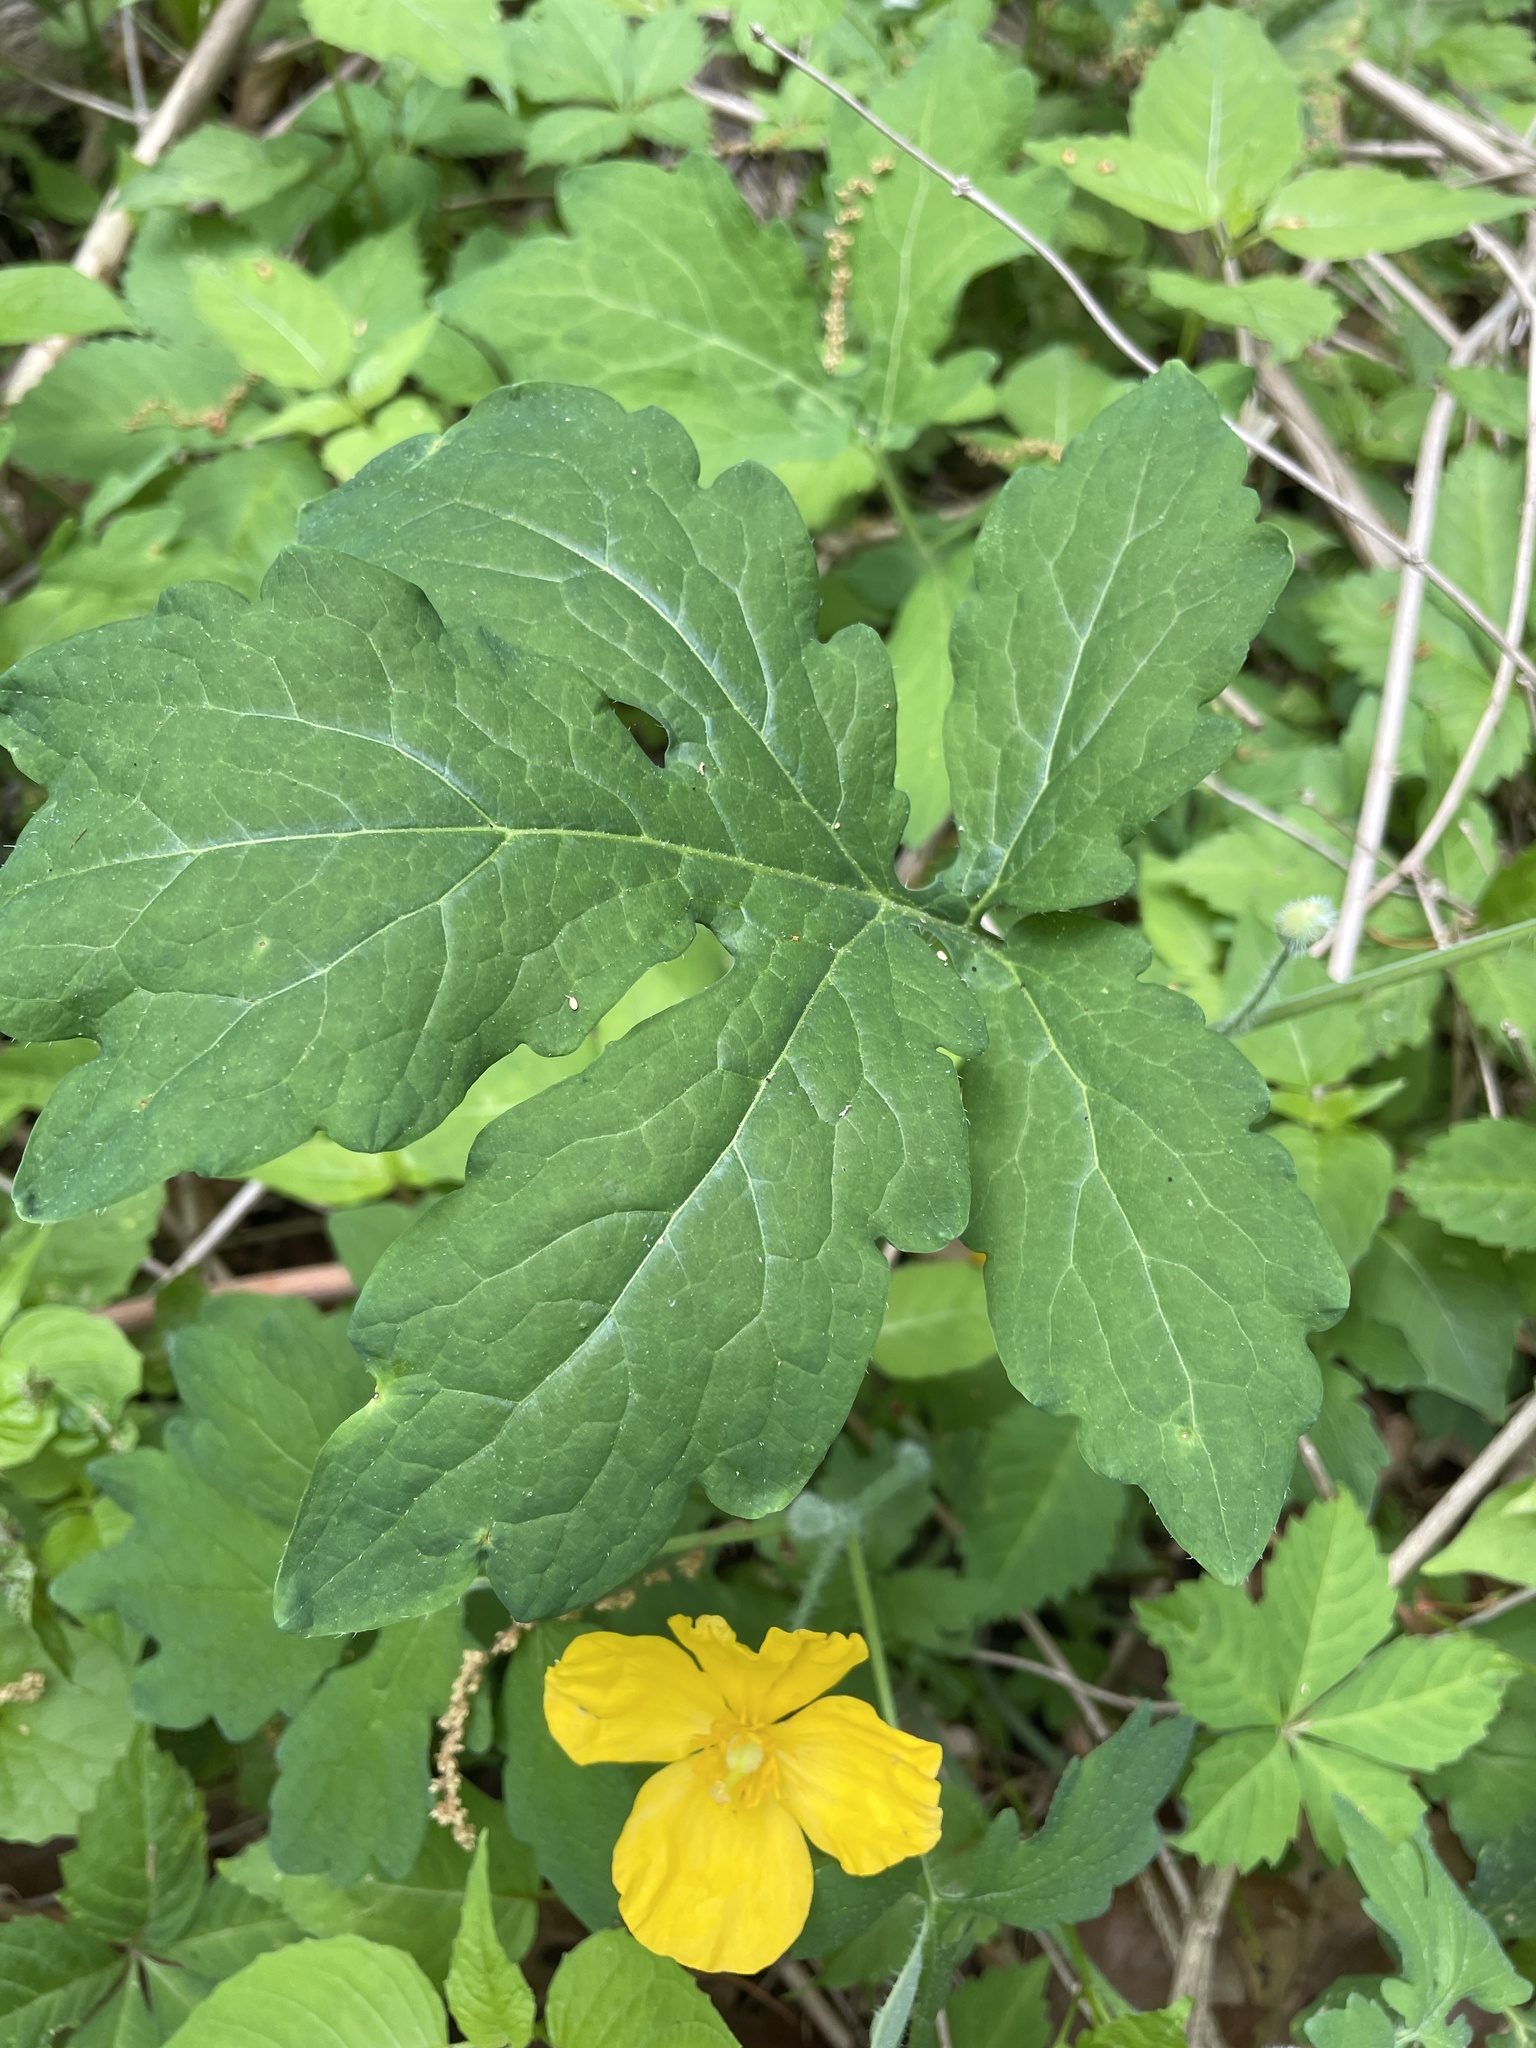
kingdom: Plantae
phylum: Tracheophyta
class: Magnoliopsida
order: Ranunculales
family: Papaveraceae
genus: Stylophorum
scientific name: Stylophorum diphyllum
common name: Celandine poppy
